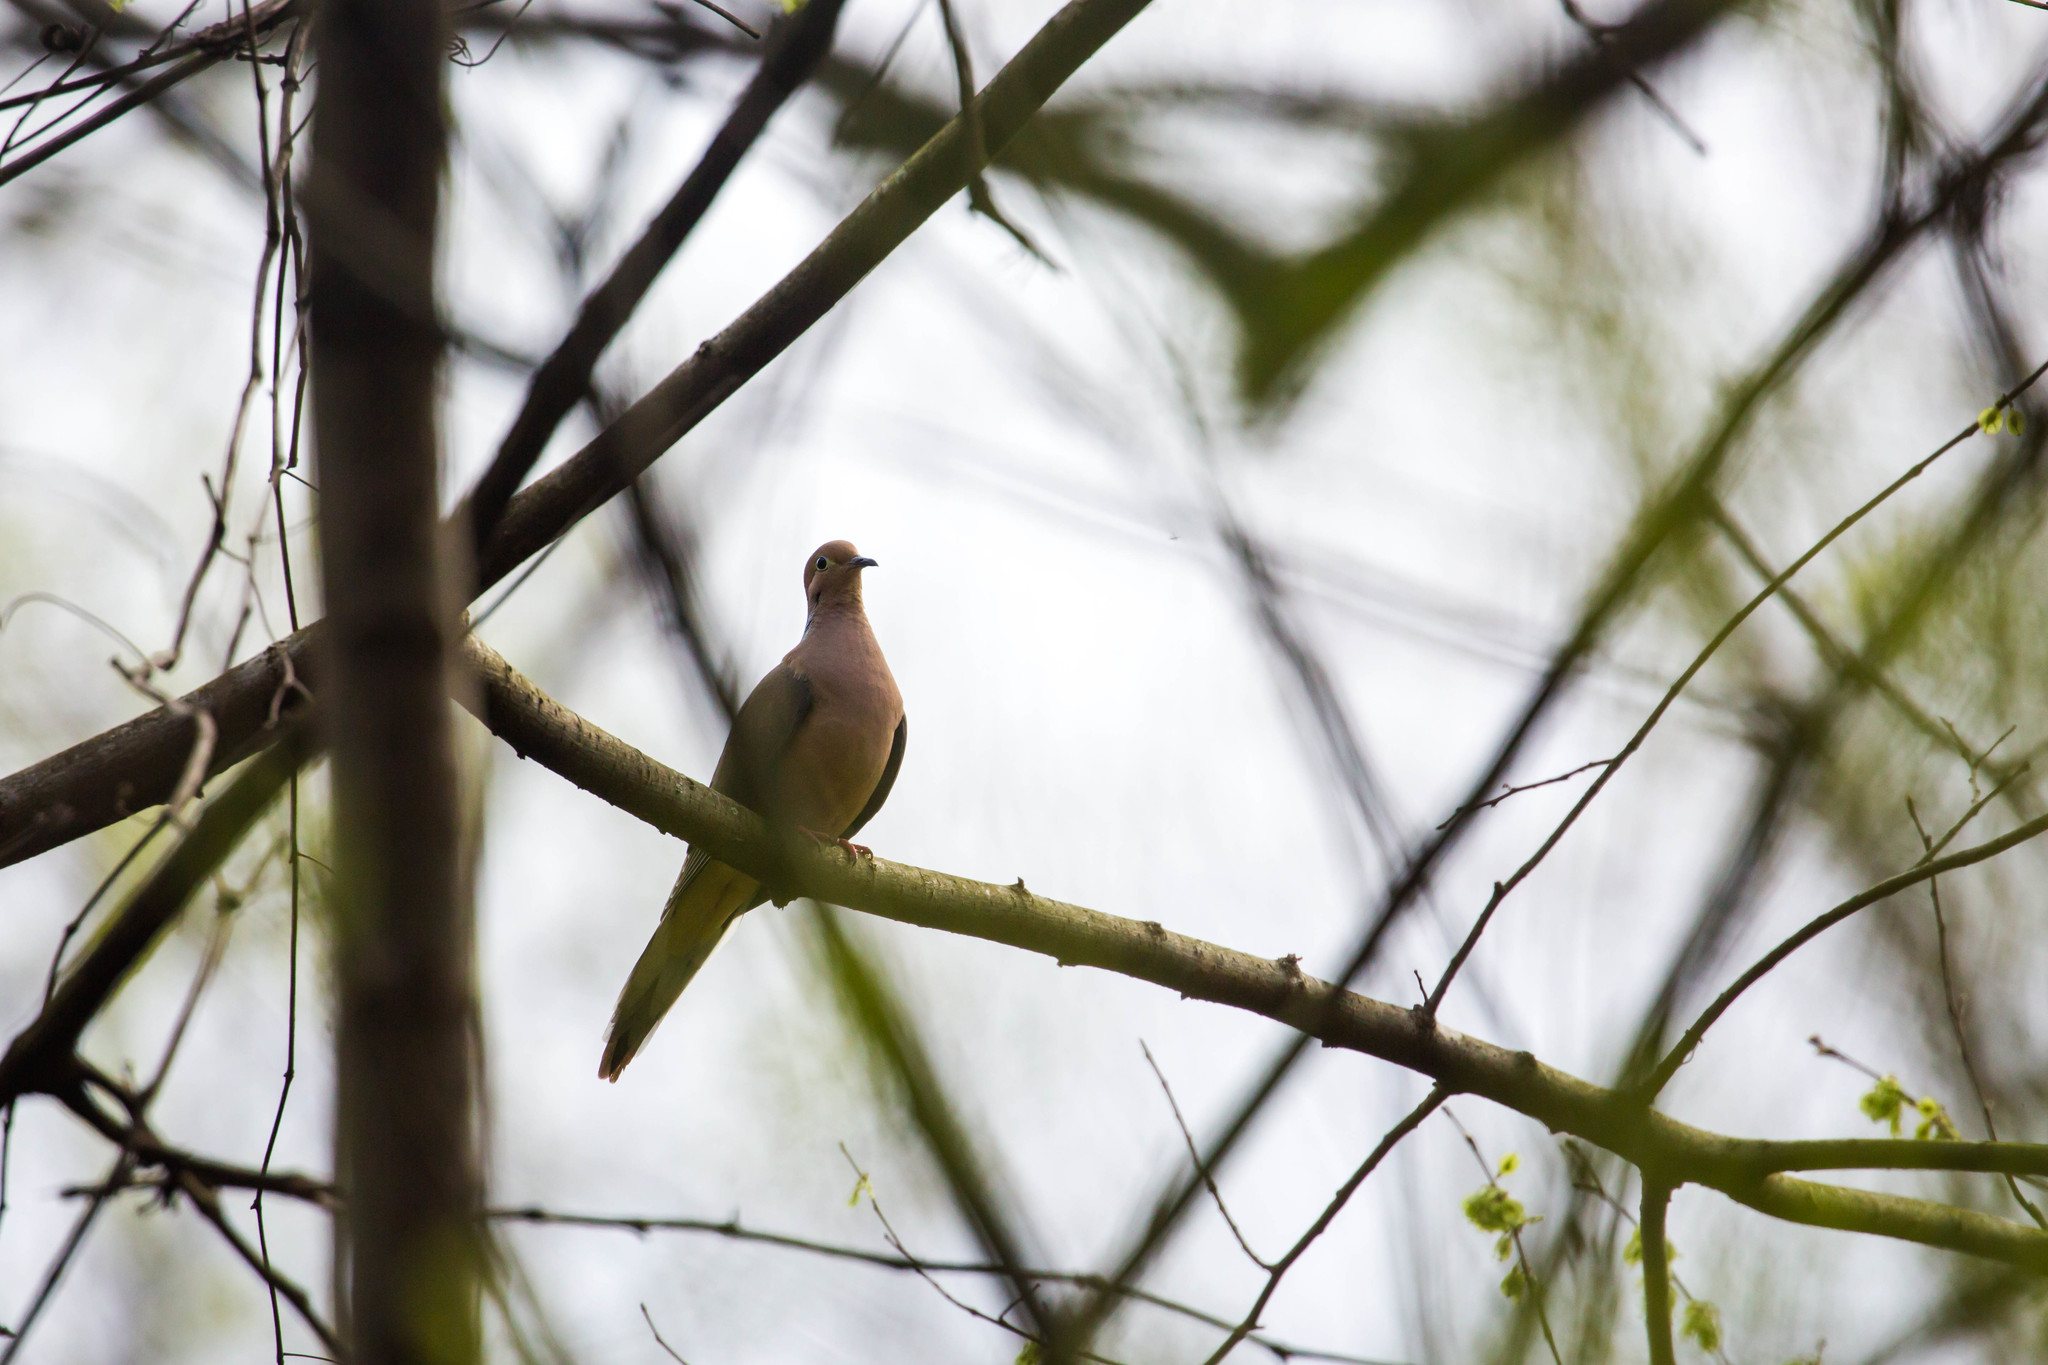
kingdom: Animalia
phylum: Chordata
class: Aves
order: Columbiformes
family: Columbidae
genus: Zenaida
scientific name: Zenaida macroura
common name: Mourning dove
